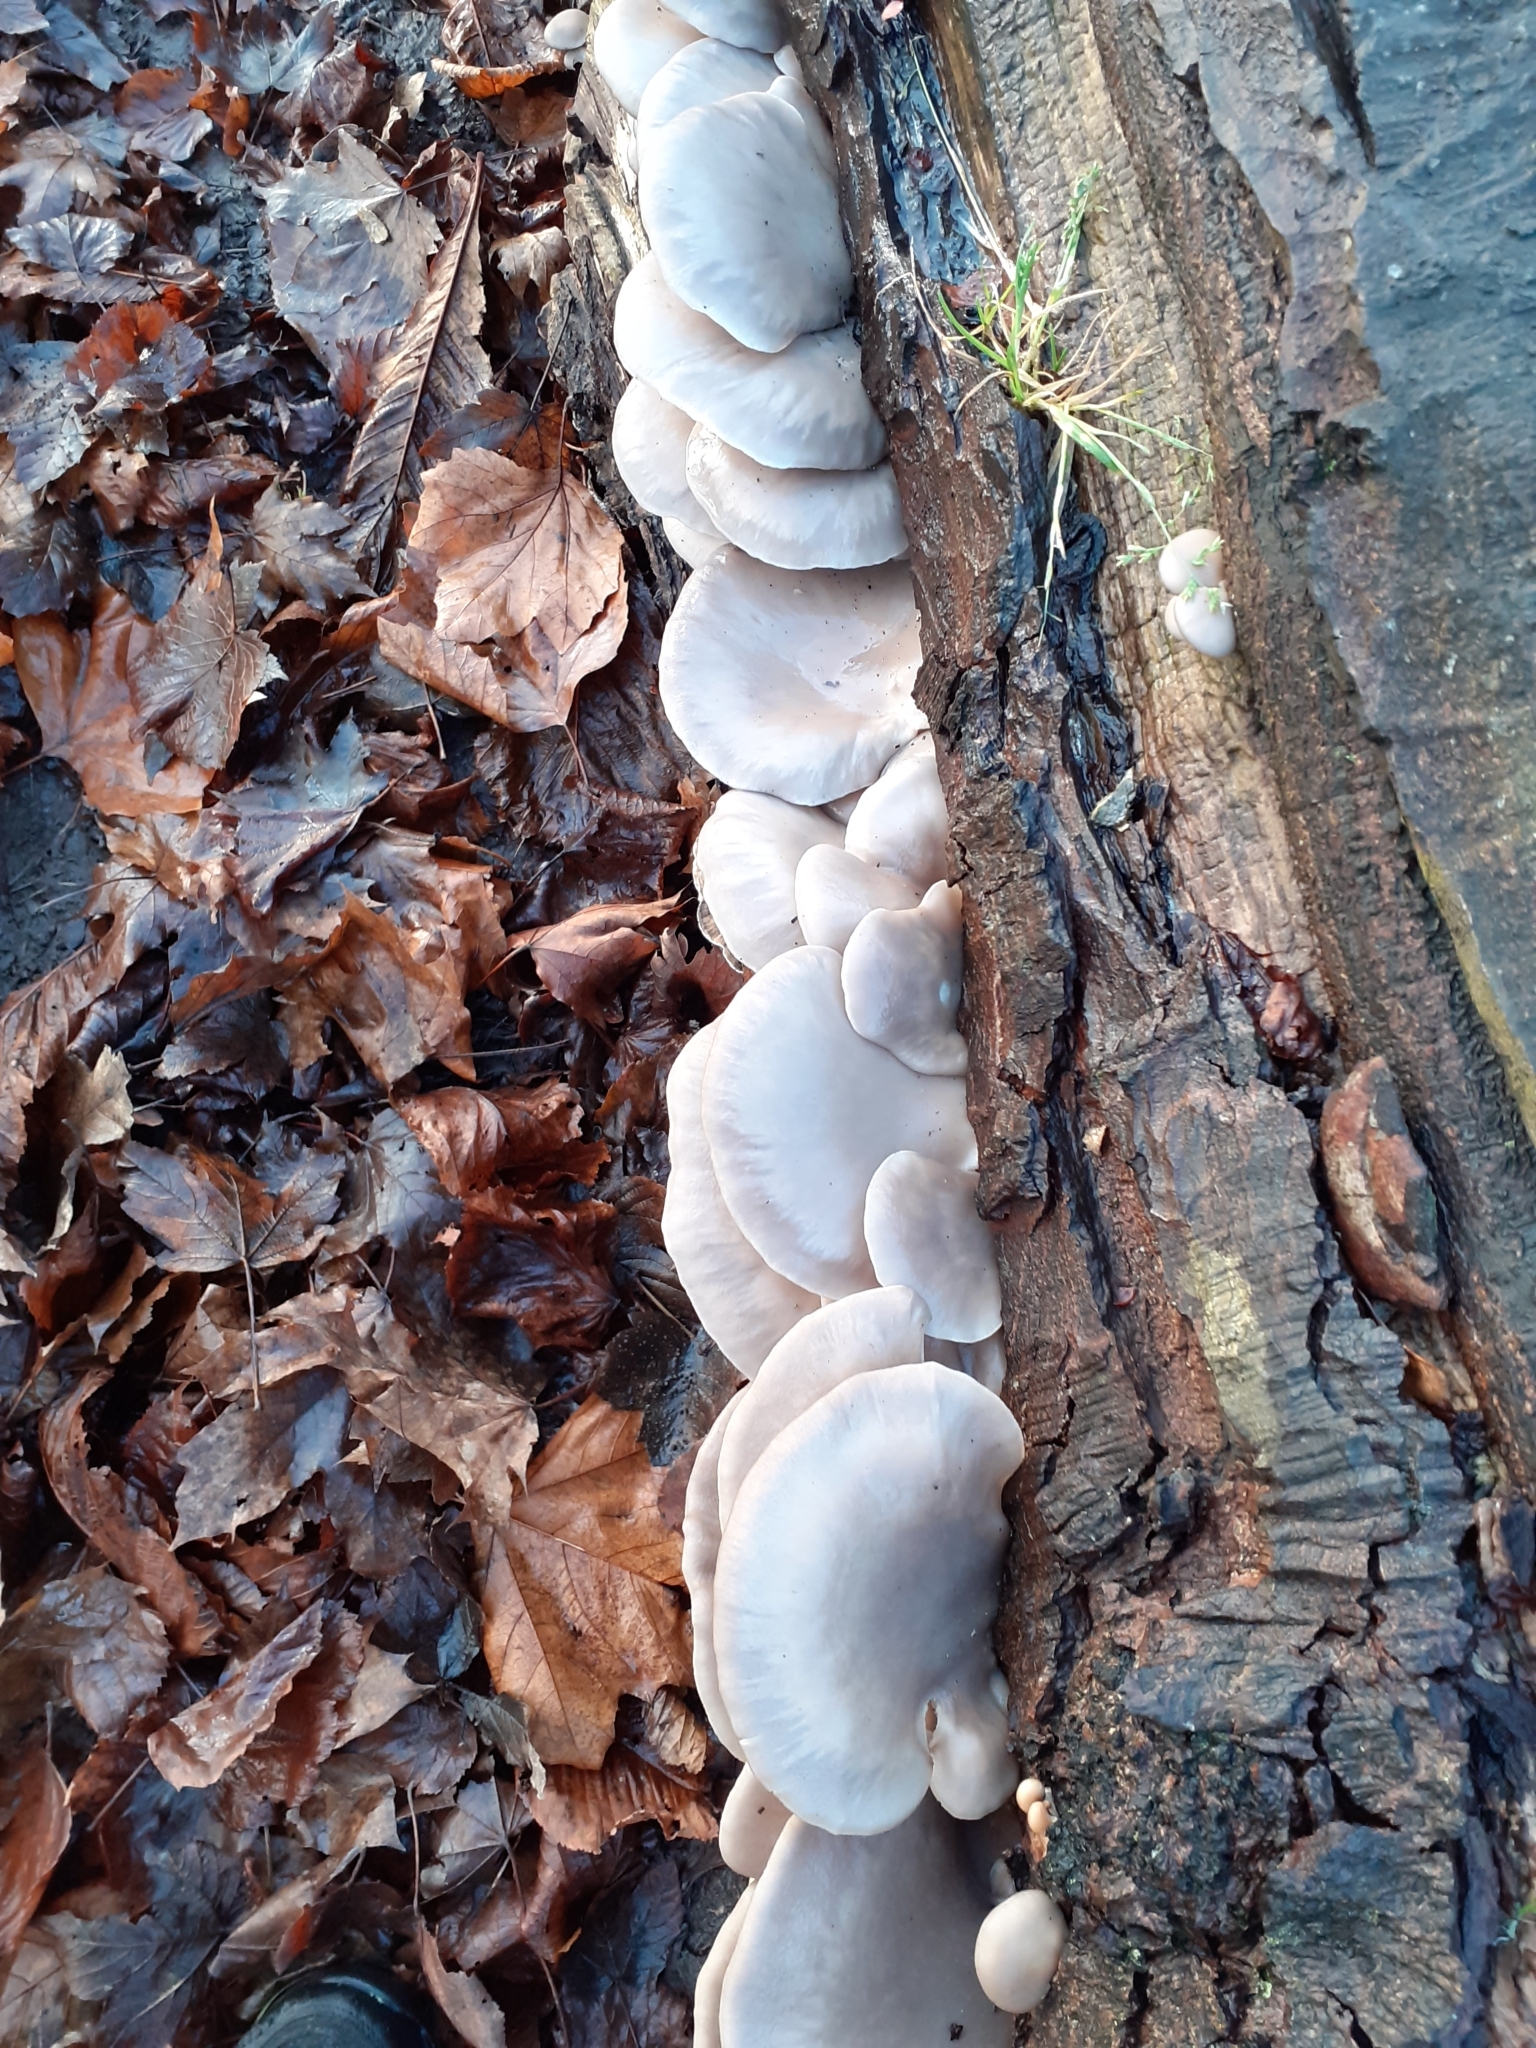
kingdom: Fungi
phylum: Basidiomycota
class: Agaricomycetes
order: Agaricales
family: Pleurotaceae
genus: Pleurotus
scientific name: Pleurotus ostreatus
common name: Oyster mushroom
